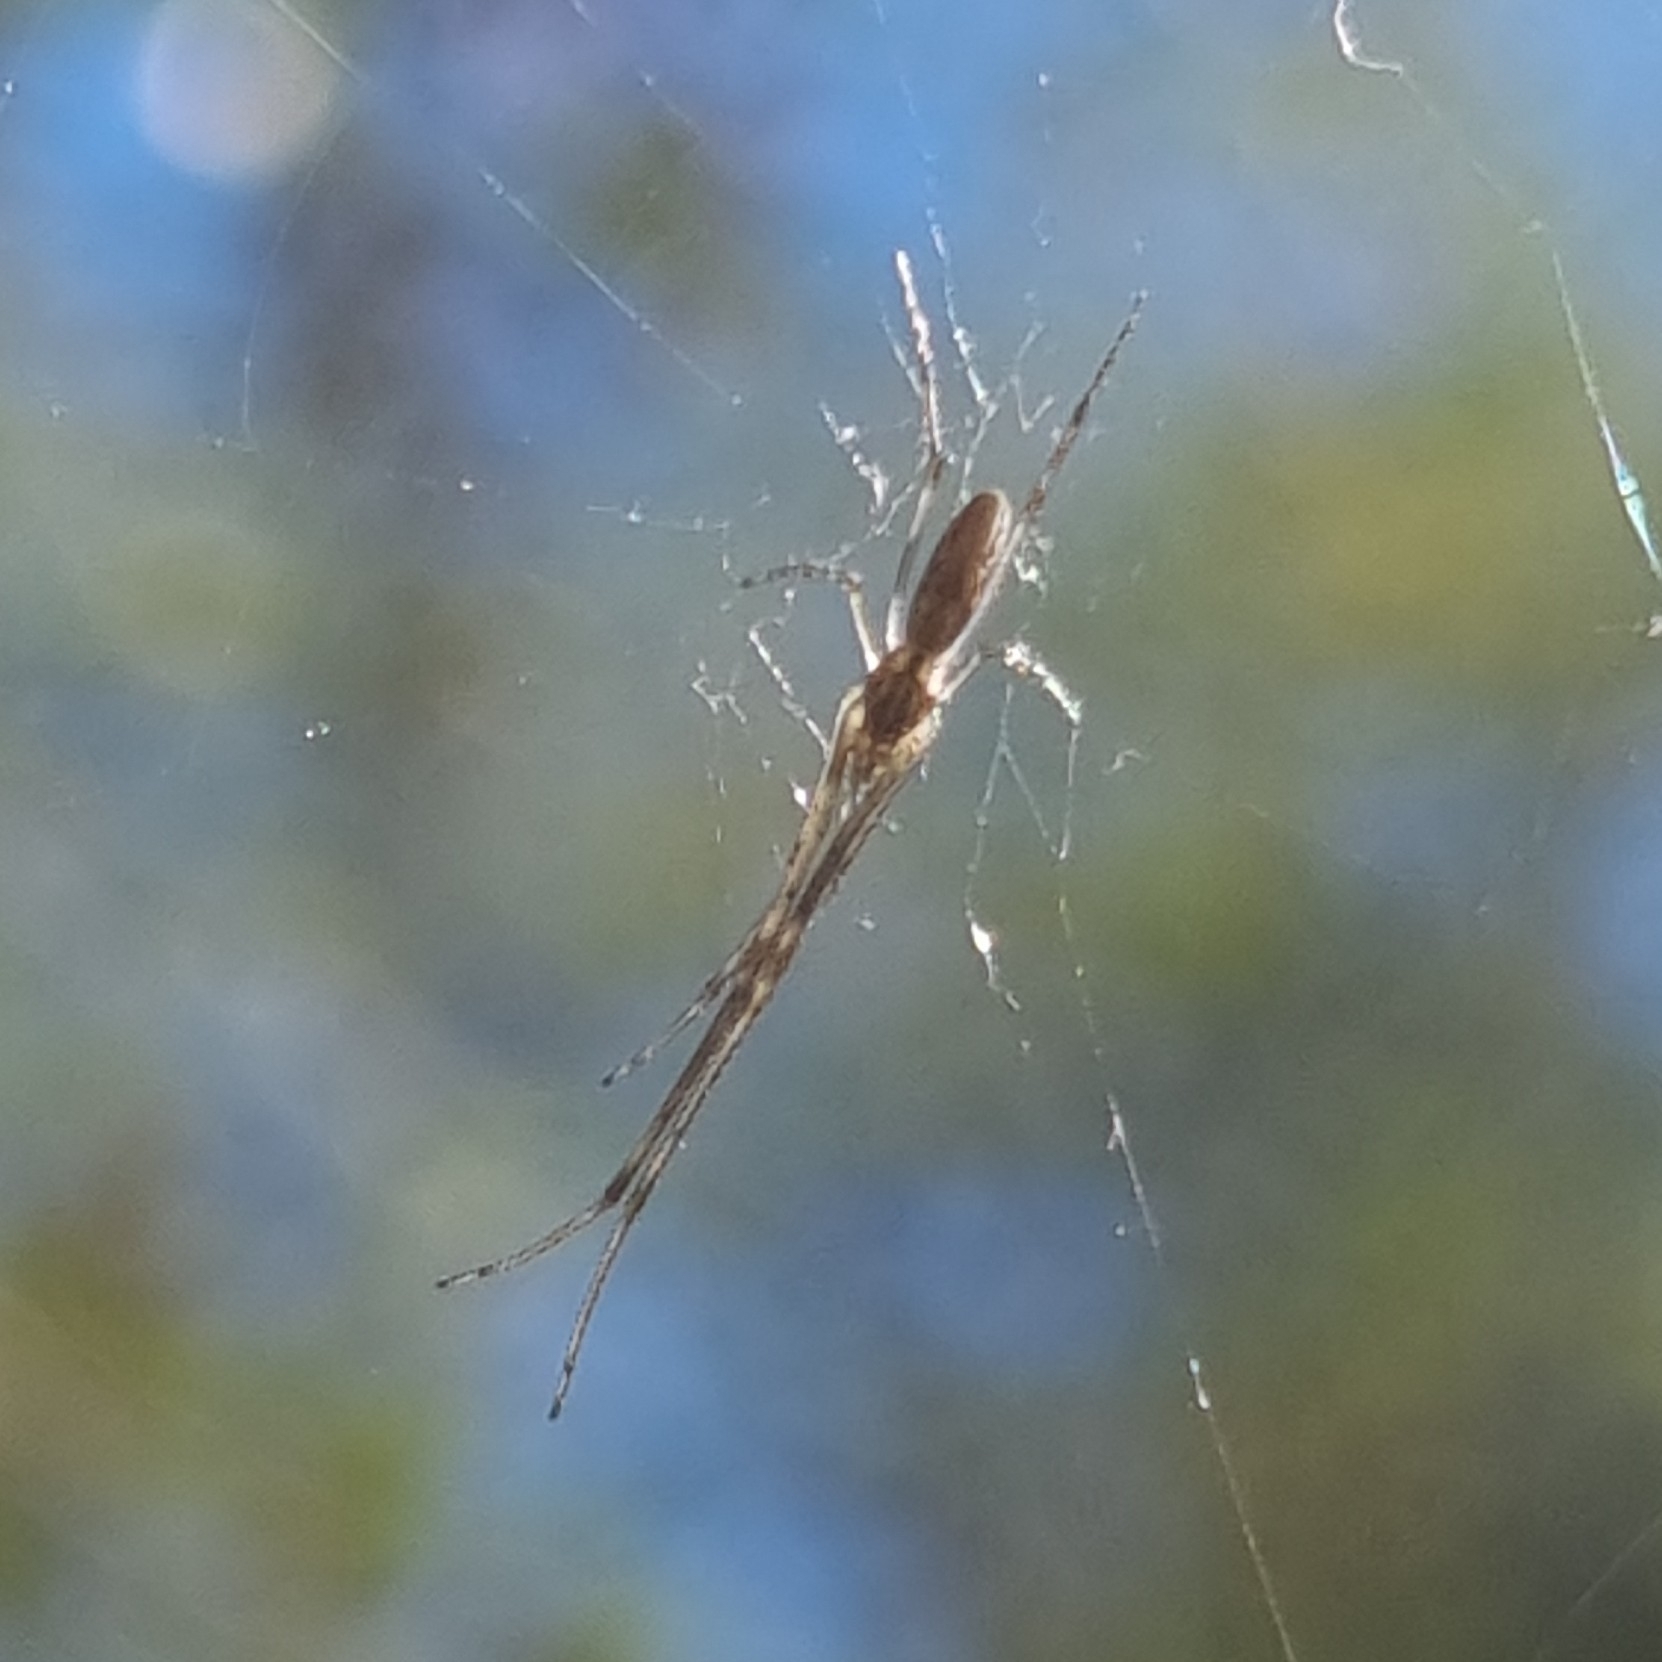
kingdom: Animalia
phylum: Arthropoda
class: Arachnida
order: Araneae
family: Tetragnathidae
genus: Tetragnatha
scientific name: Tetragnatha
